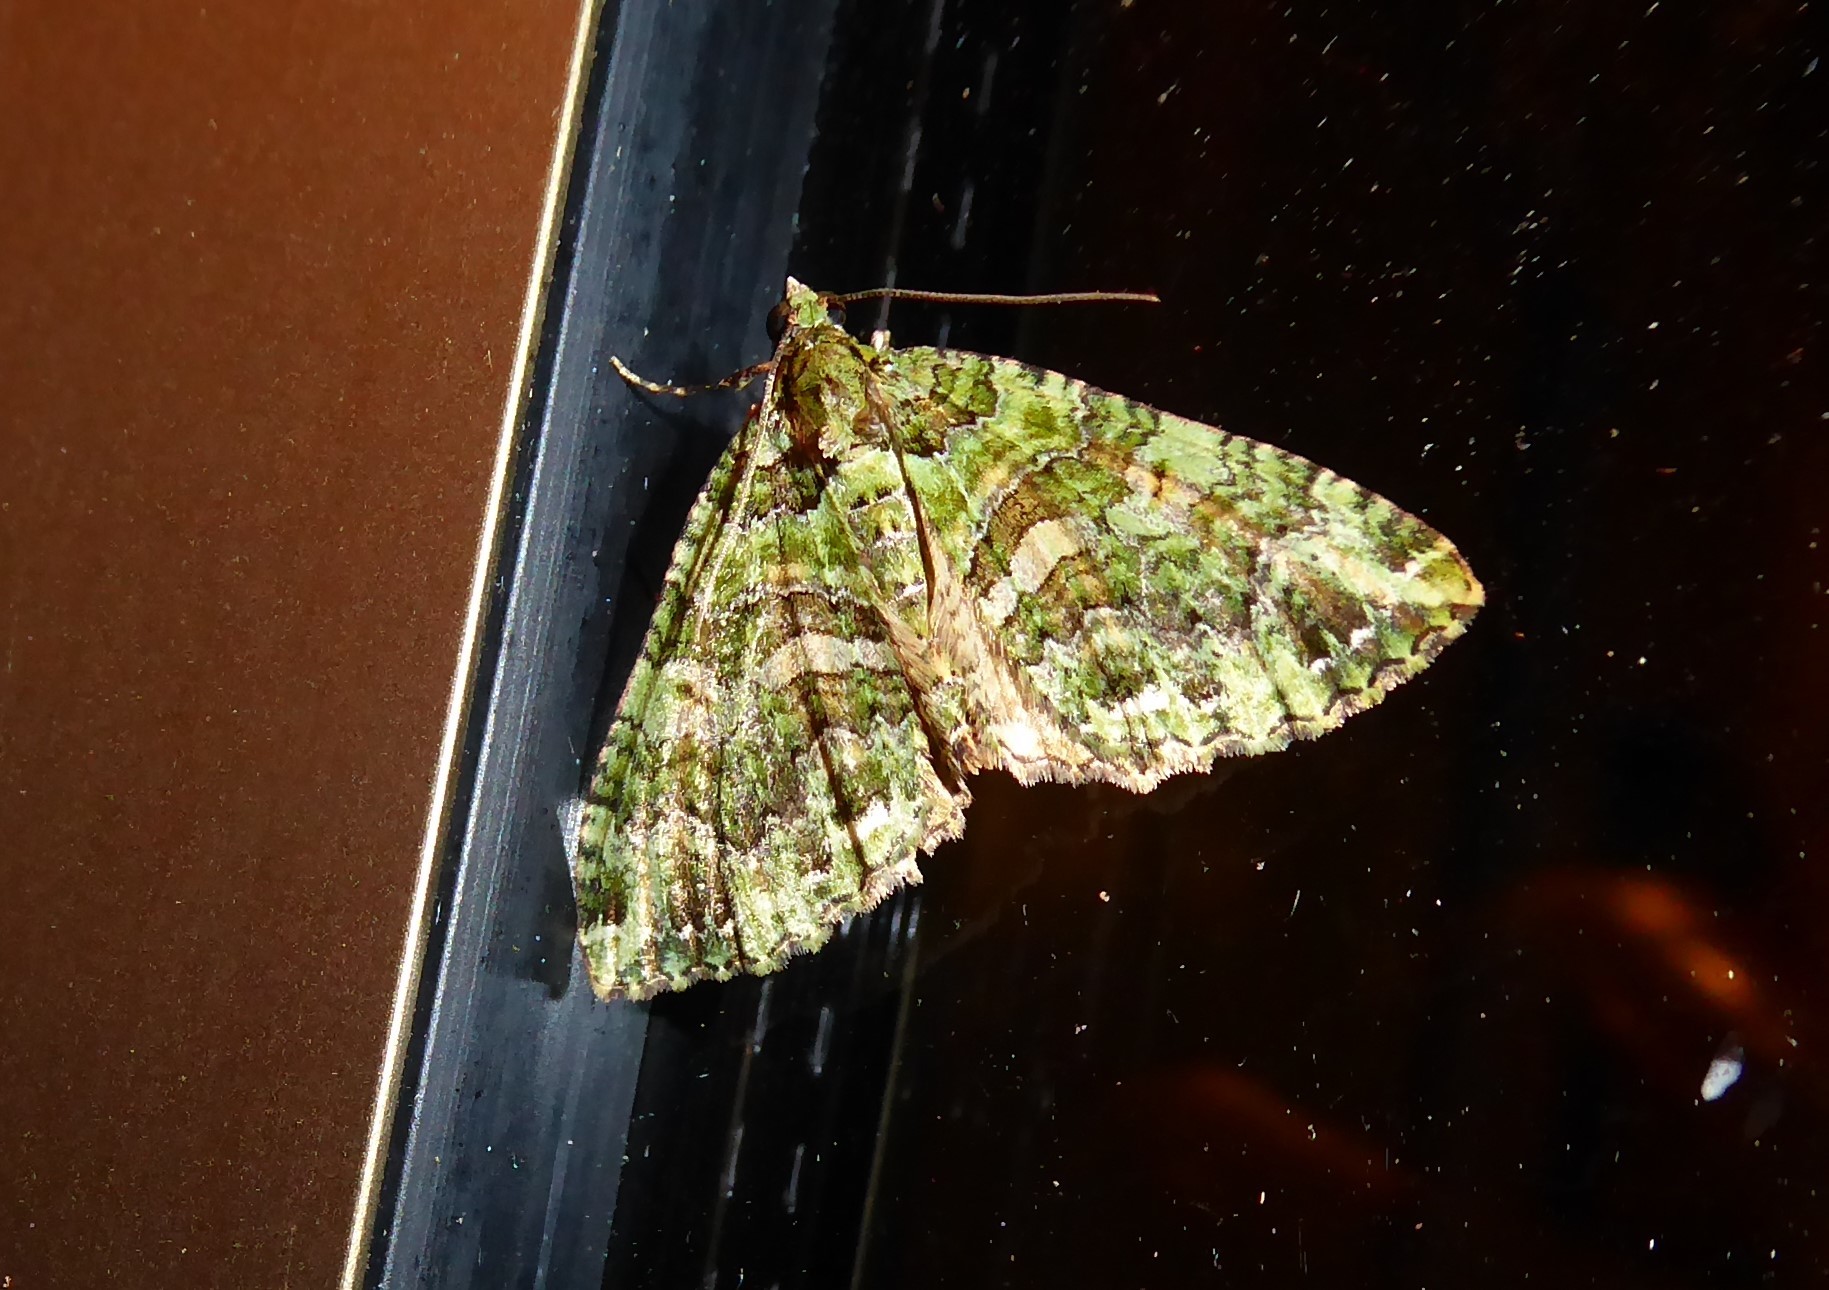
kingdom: Animalia
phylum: Arthropoda
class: Insecta
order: Lepidoptera
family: Geometridae
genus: Austrocidaria
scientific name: Austrocidaria similata
